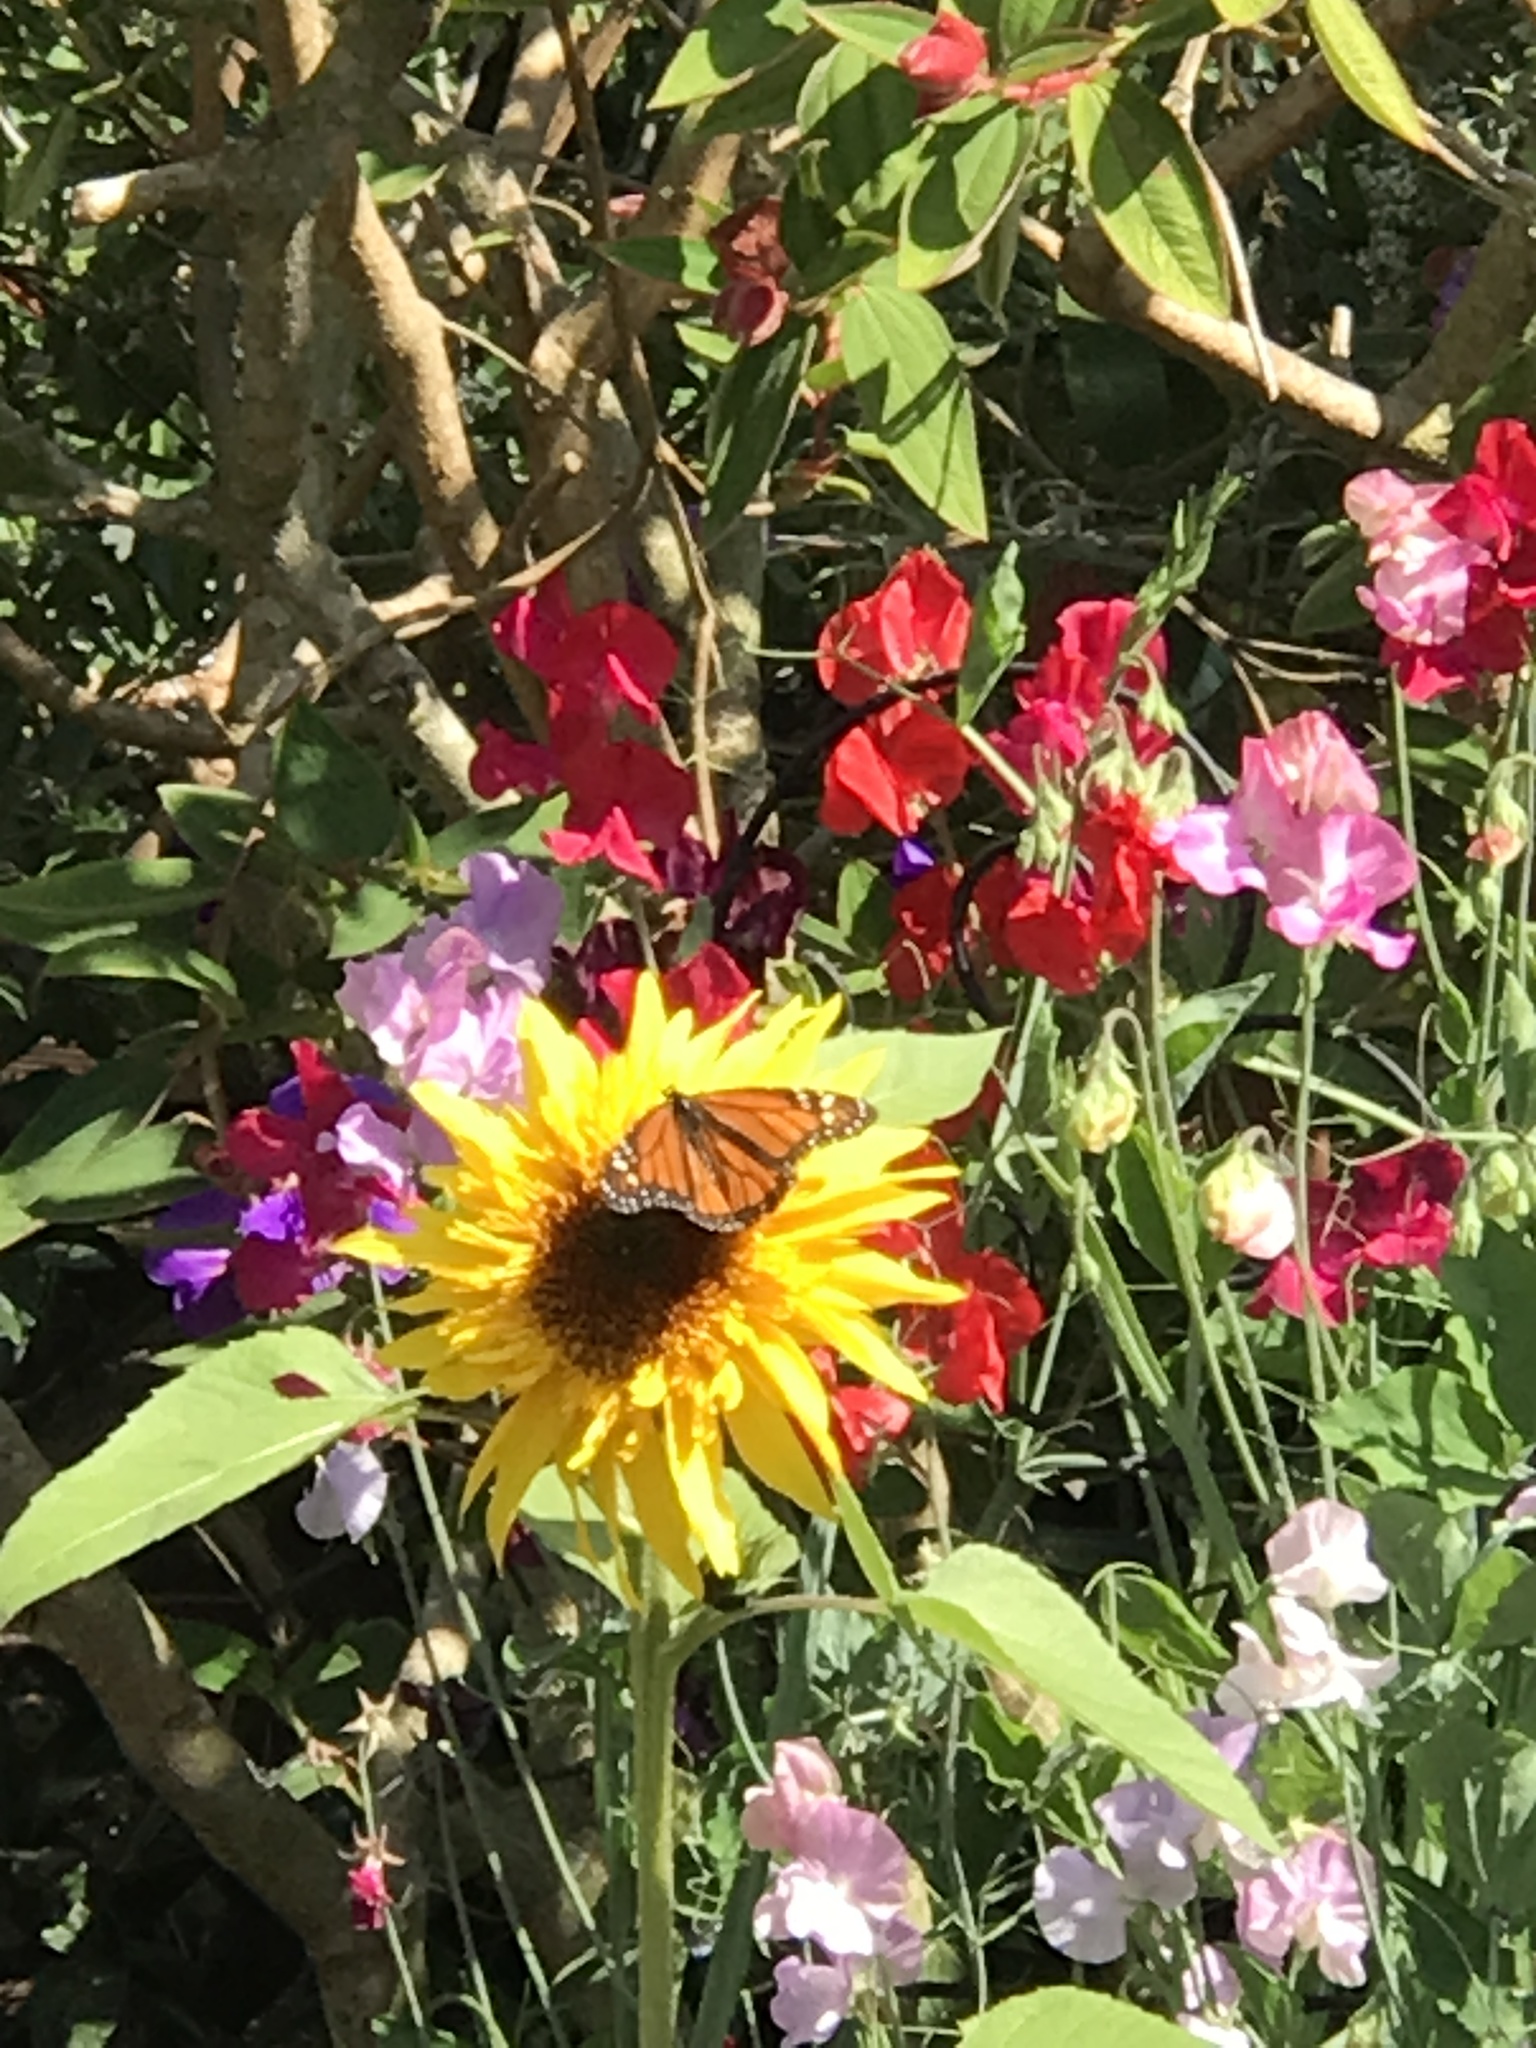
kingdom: Animalia
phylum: Arthropoda
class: Insecta
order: Lepidoptera
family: Nymphalidae
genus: Danaus
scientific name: Danaus plexippus
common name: Monarch
